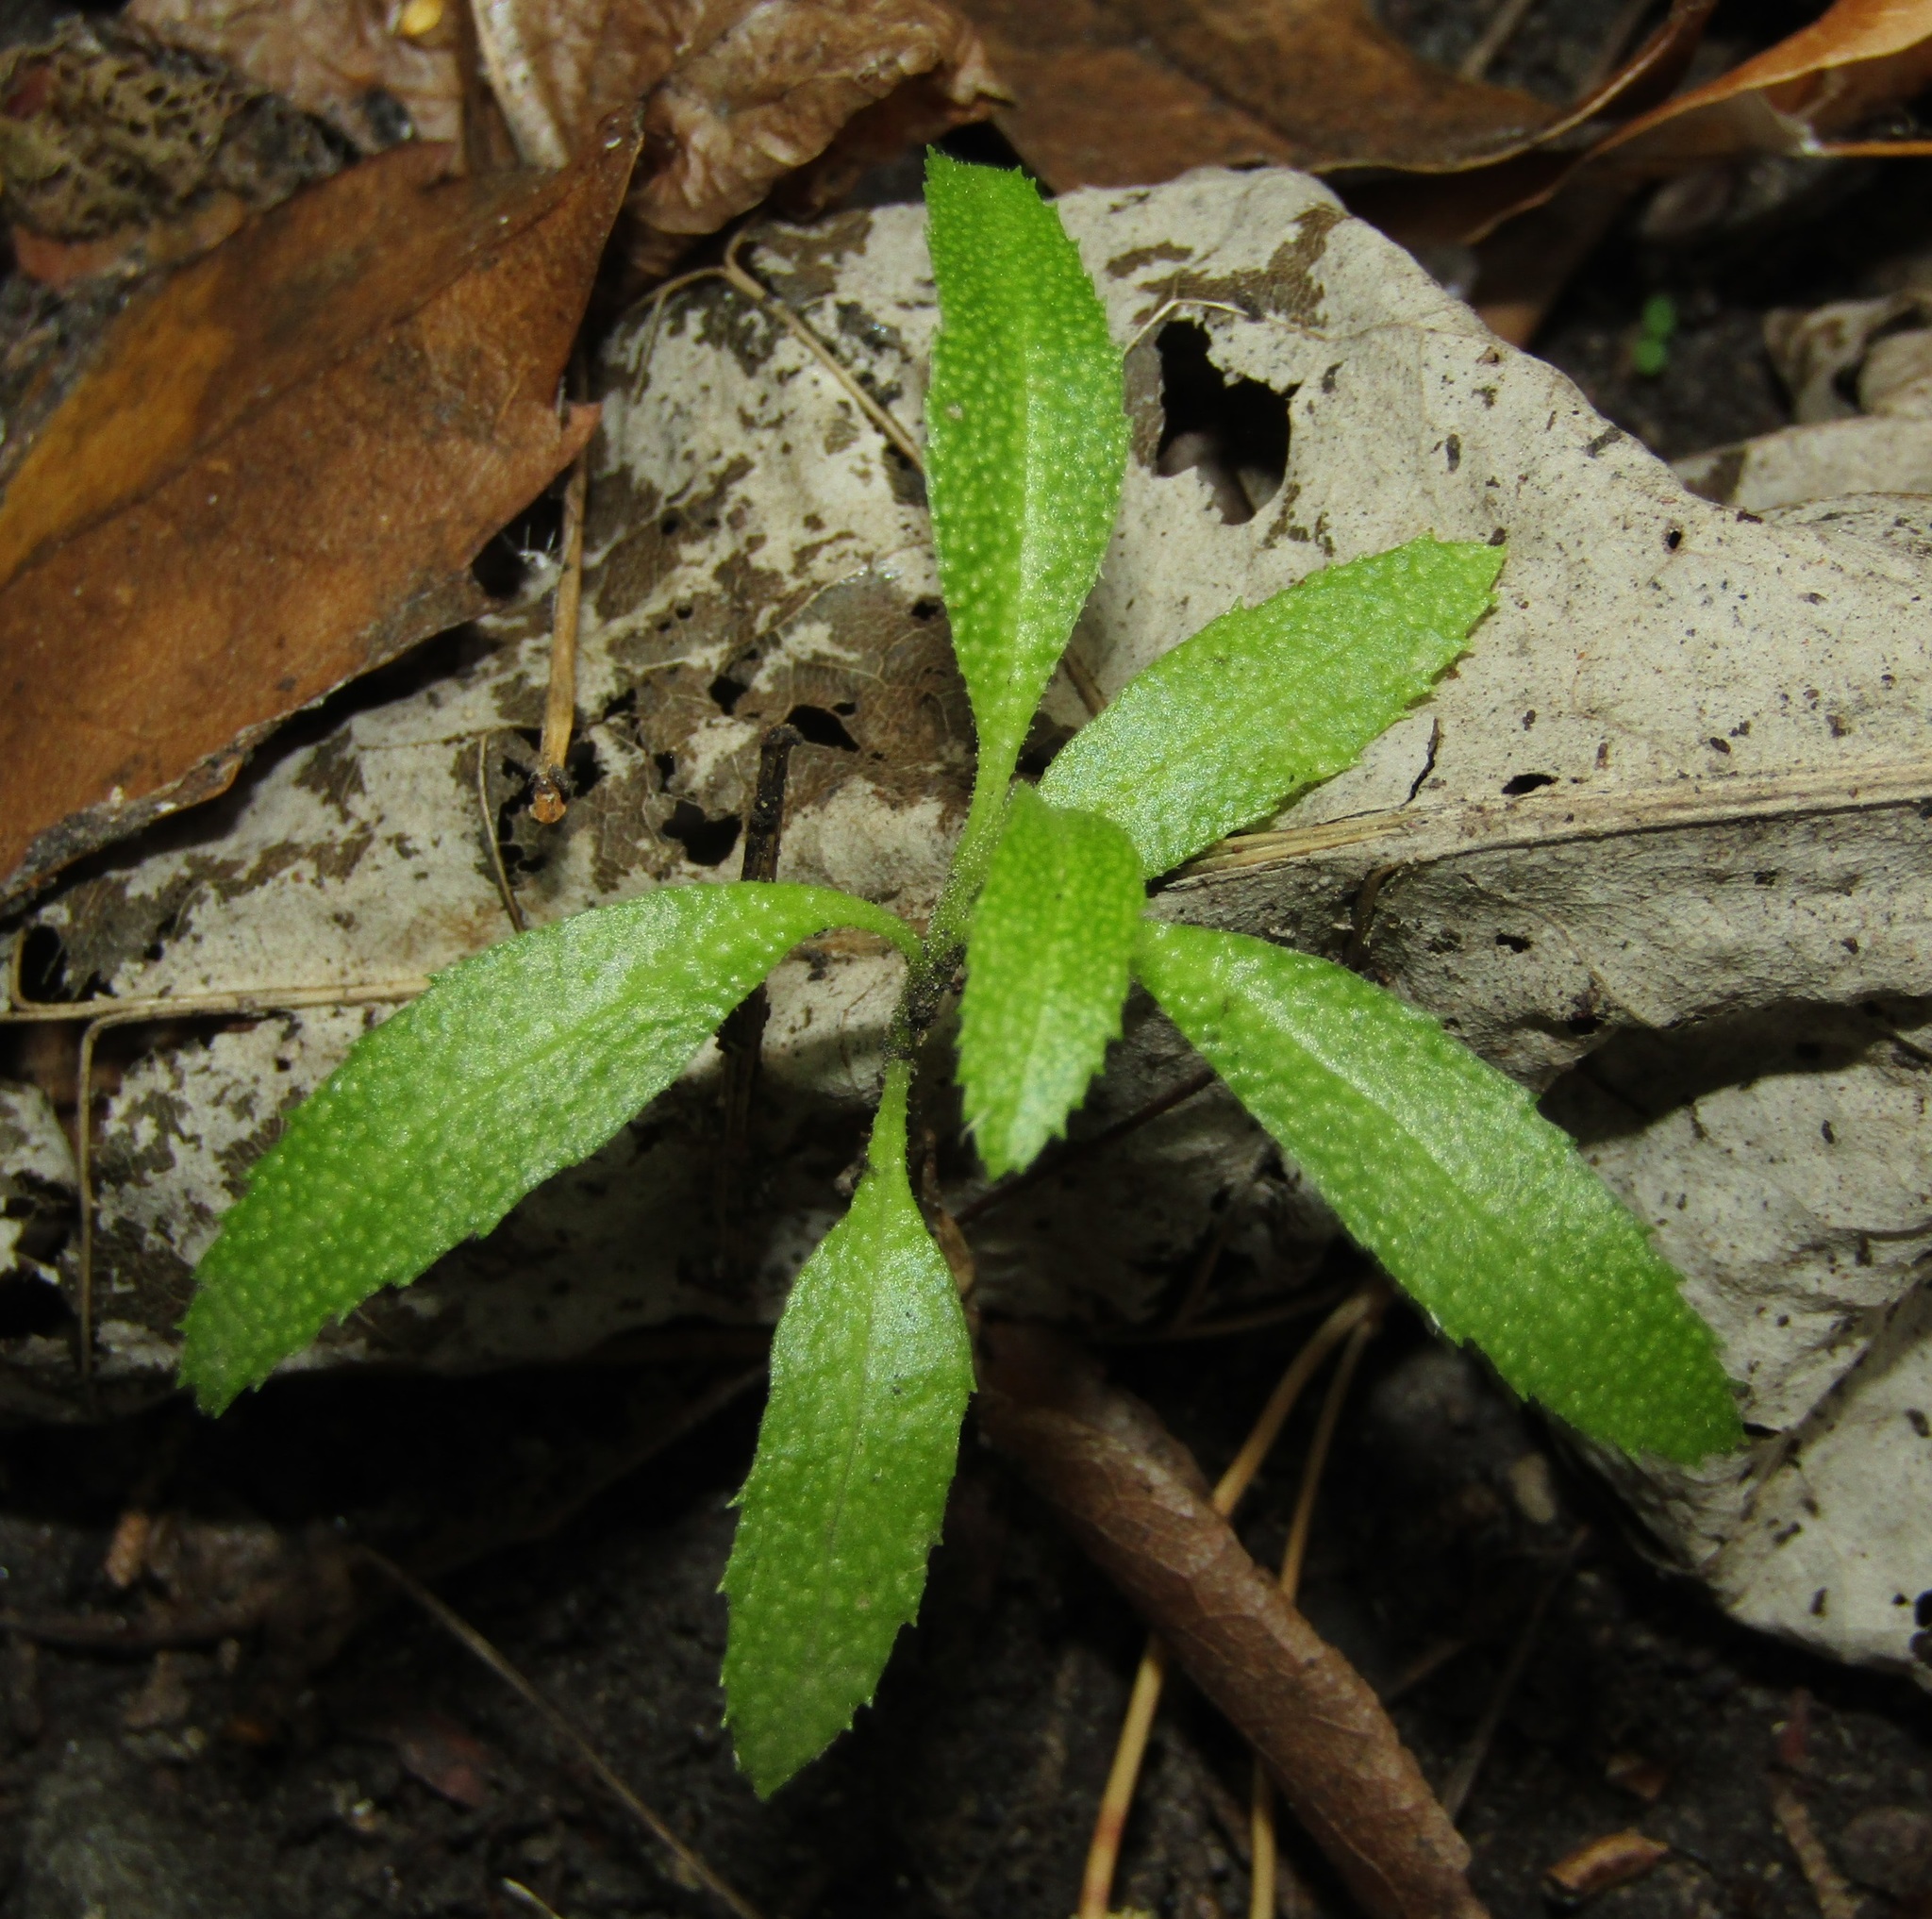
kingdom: Plantae
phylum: Tracheophyta
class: Magnoliopsida
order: Lamiales
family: Scrophulariaceae
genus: Myoporum
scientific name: Myoporum laetum
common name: Ngaio tree
